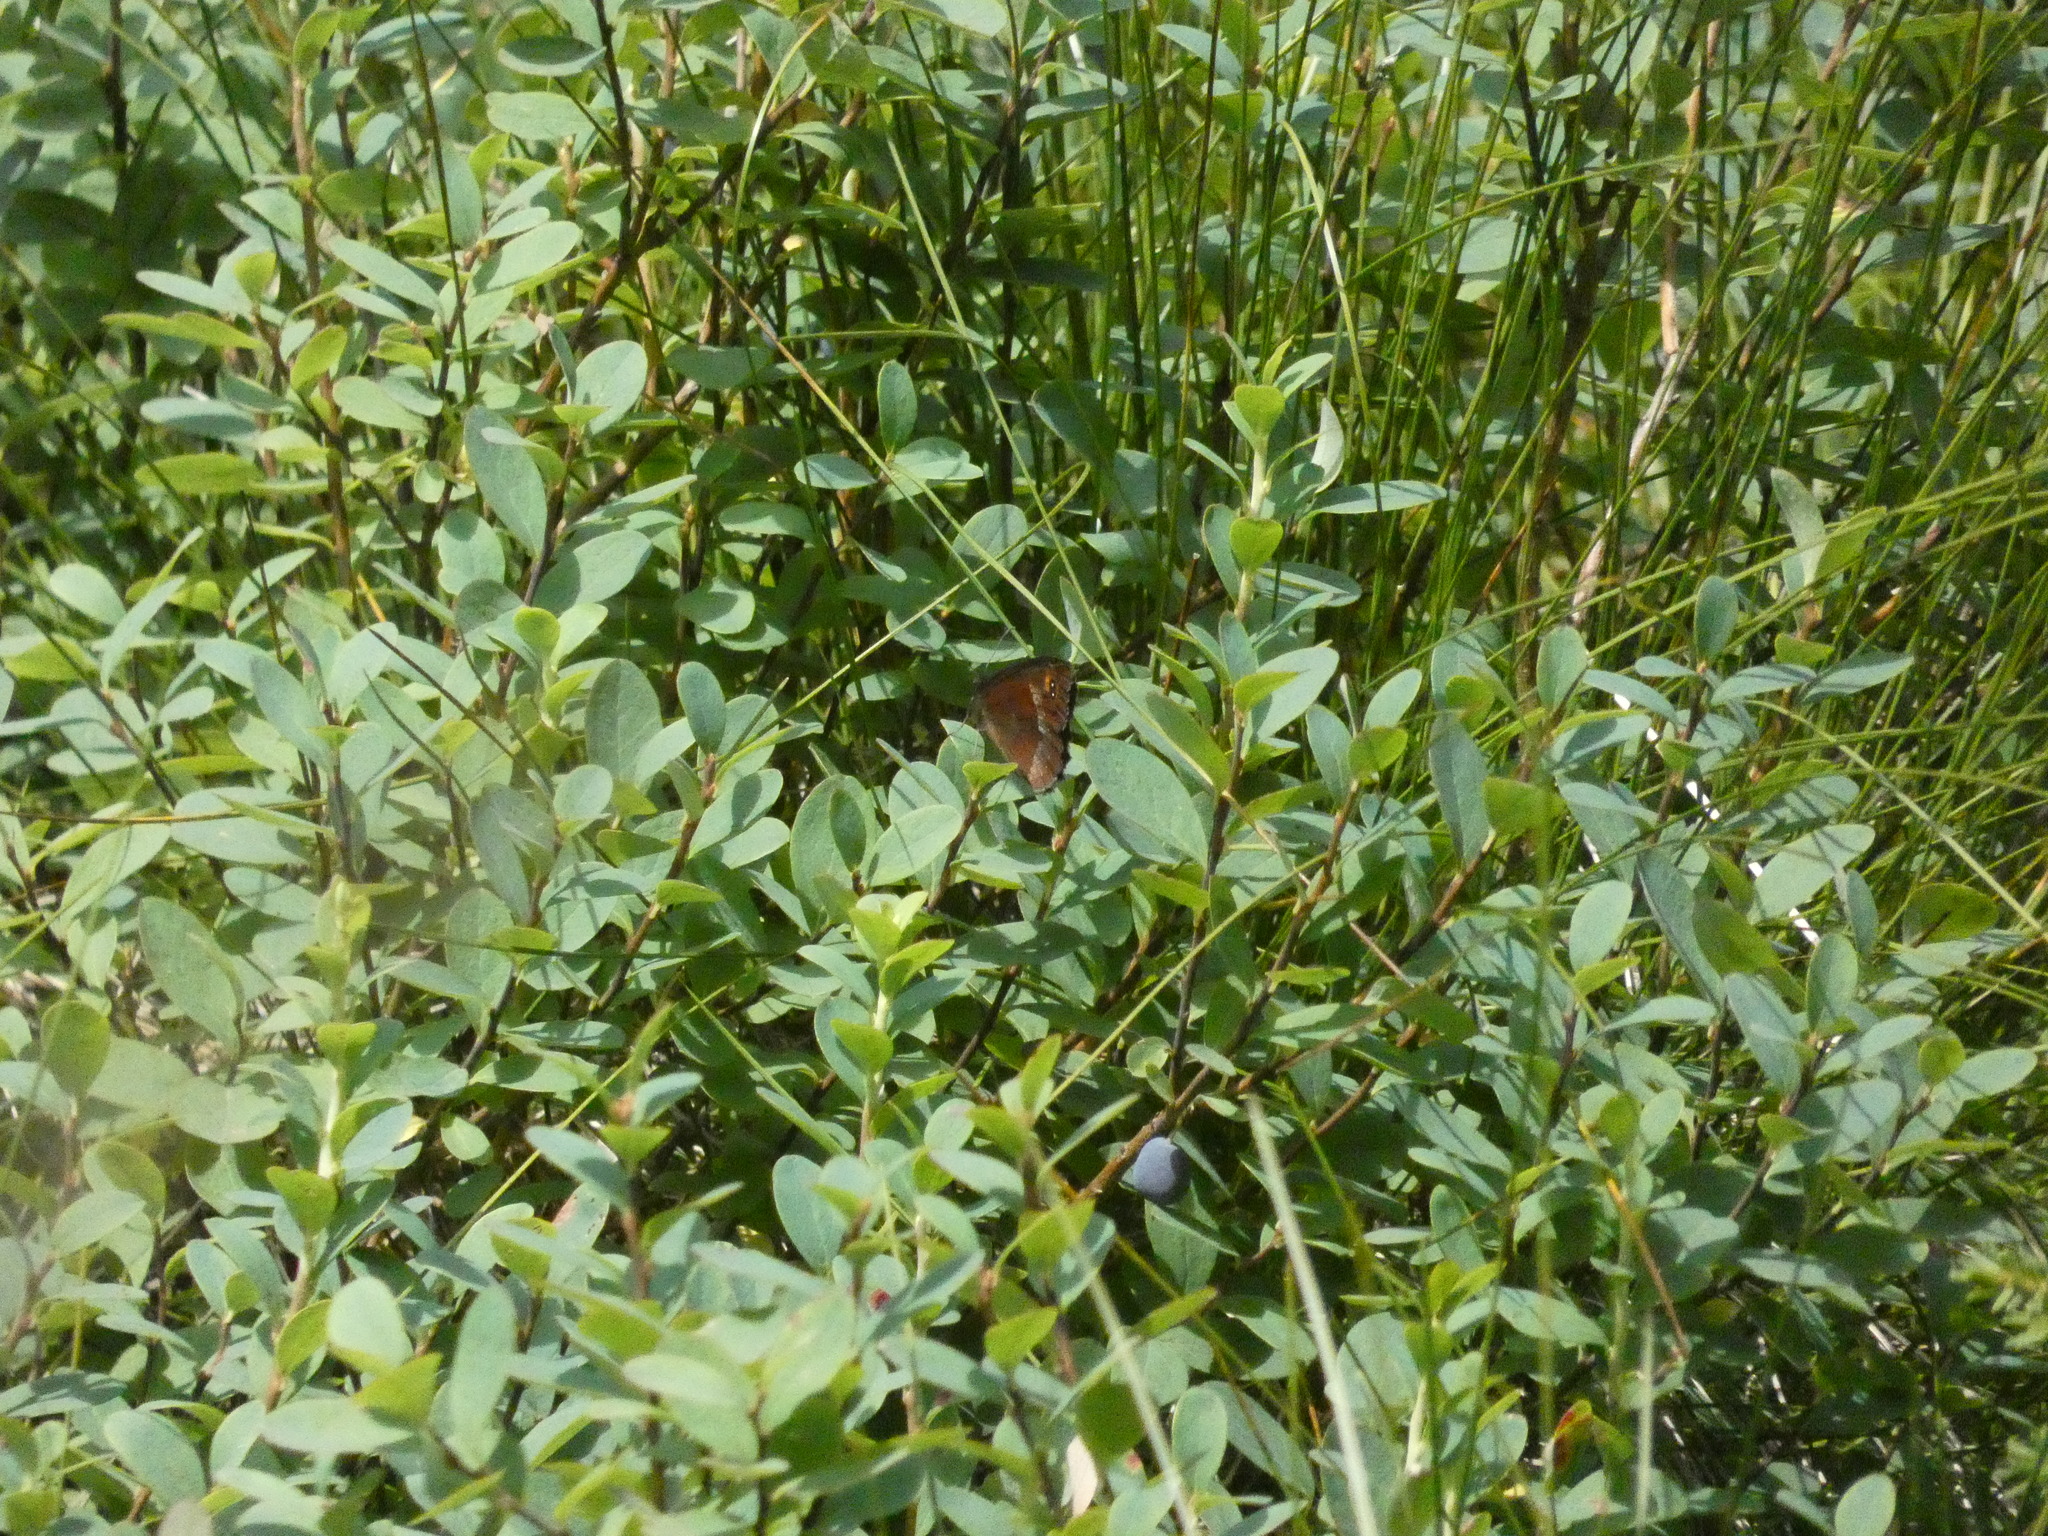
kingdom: Animalia
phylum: Arthropoda
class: Insecta
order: Lepidoptera
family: Nymphalidae
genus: Erebia
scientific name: Erebia aethiops
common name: Scotch argus
